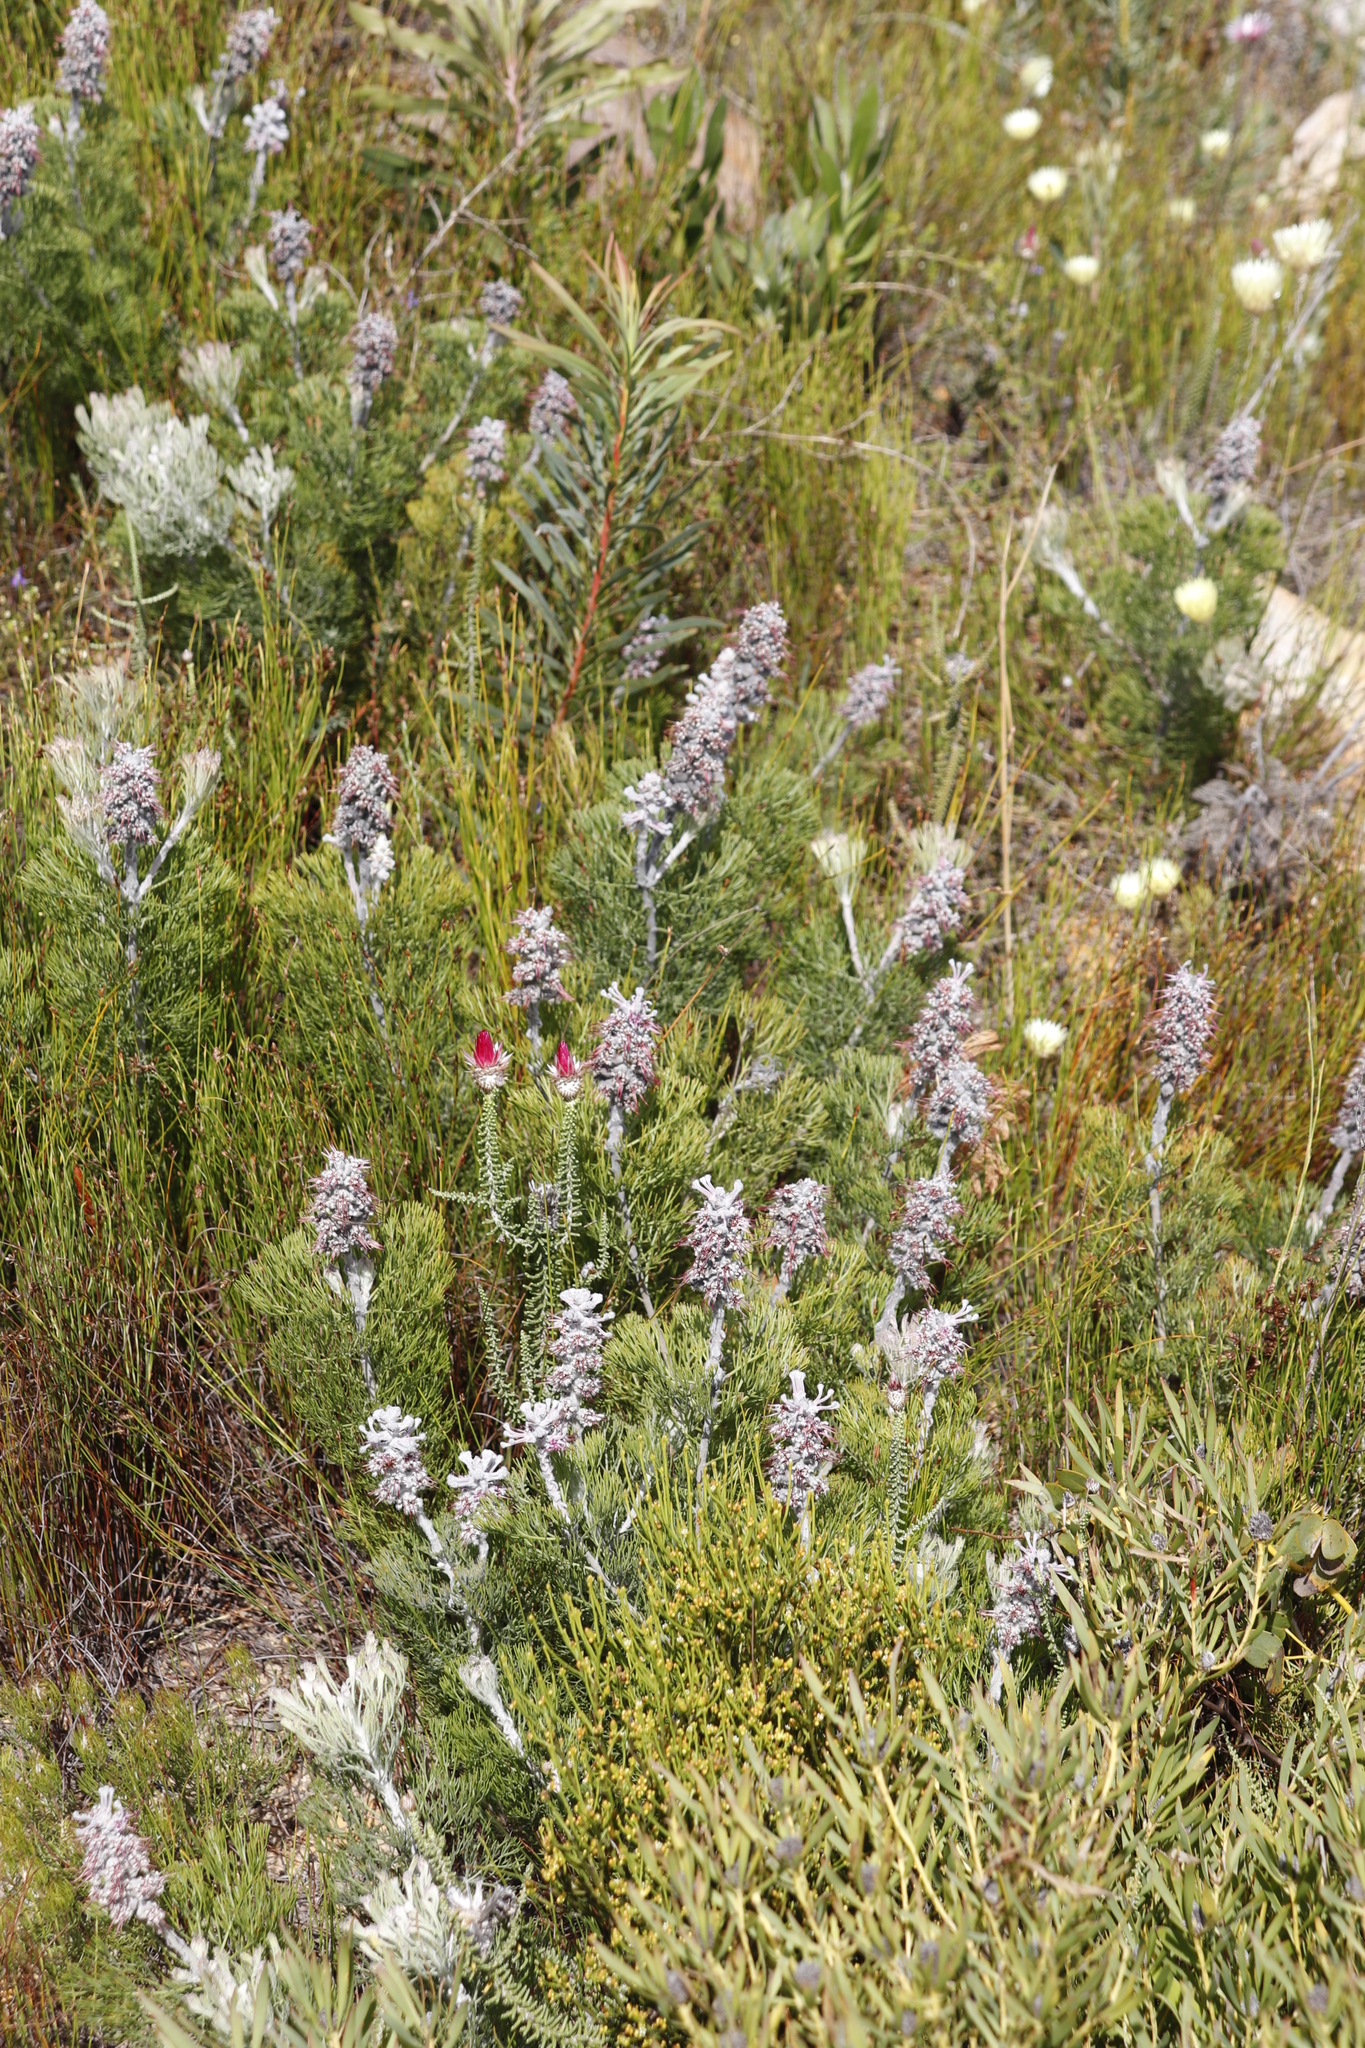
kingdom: Plantae
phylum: Tracheophyta
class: Magnoliopsida
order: Proteales
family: Proteaceae
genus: Paranomus
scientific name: Paranomus bolusii
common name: Overberg sceptre
